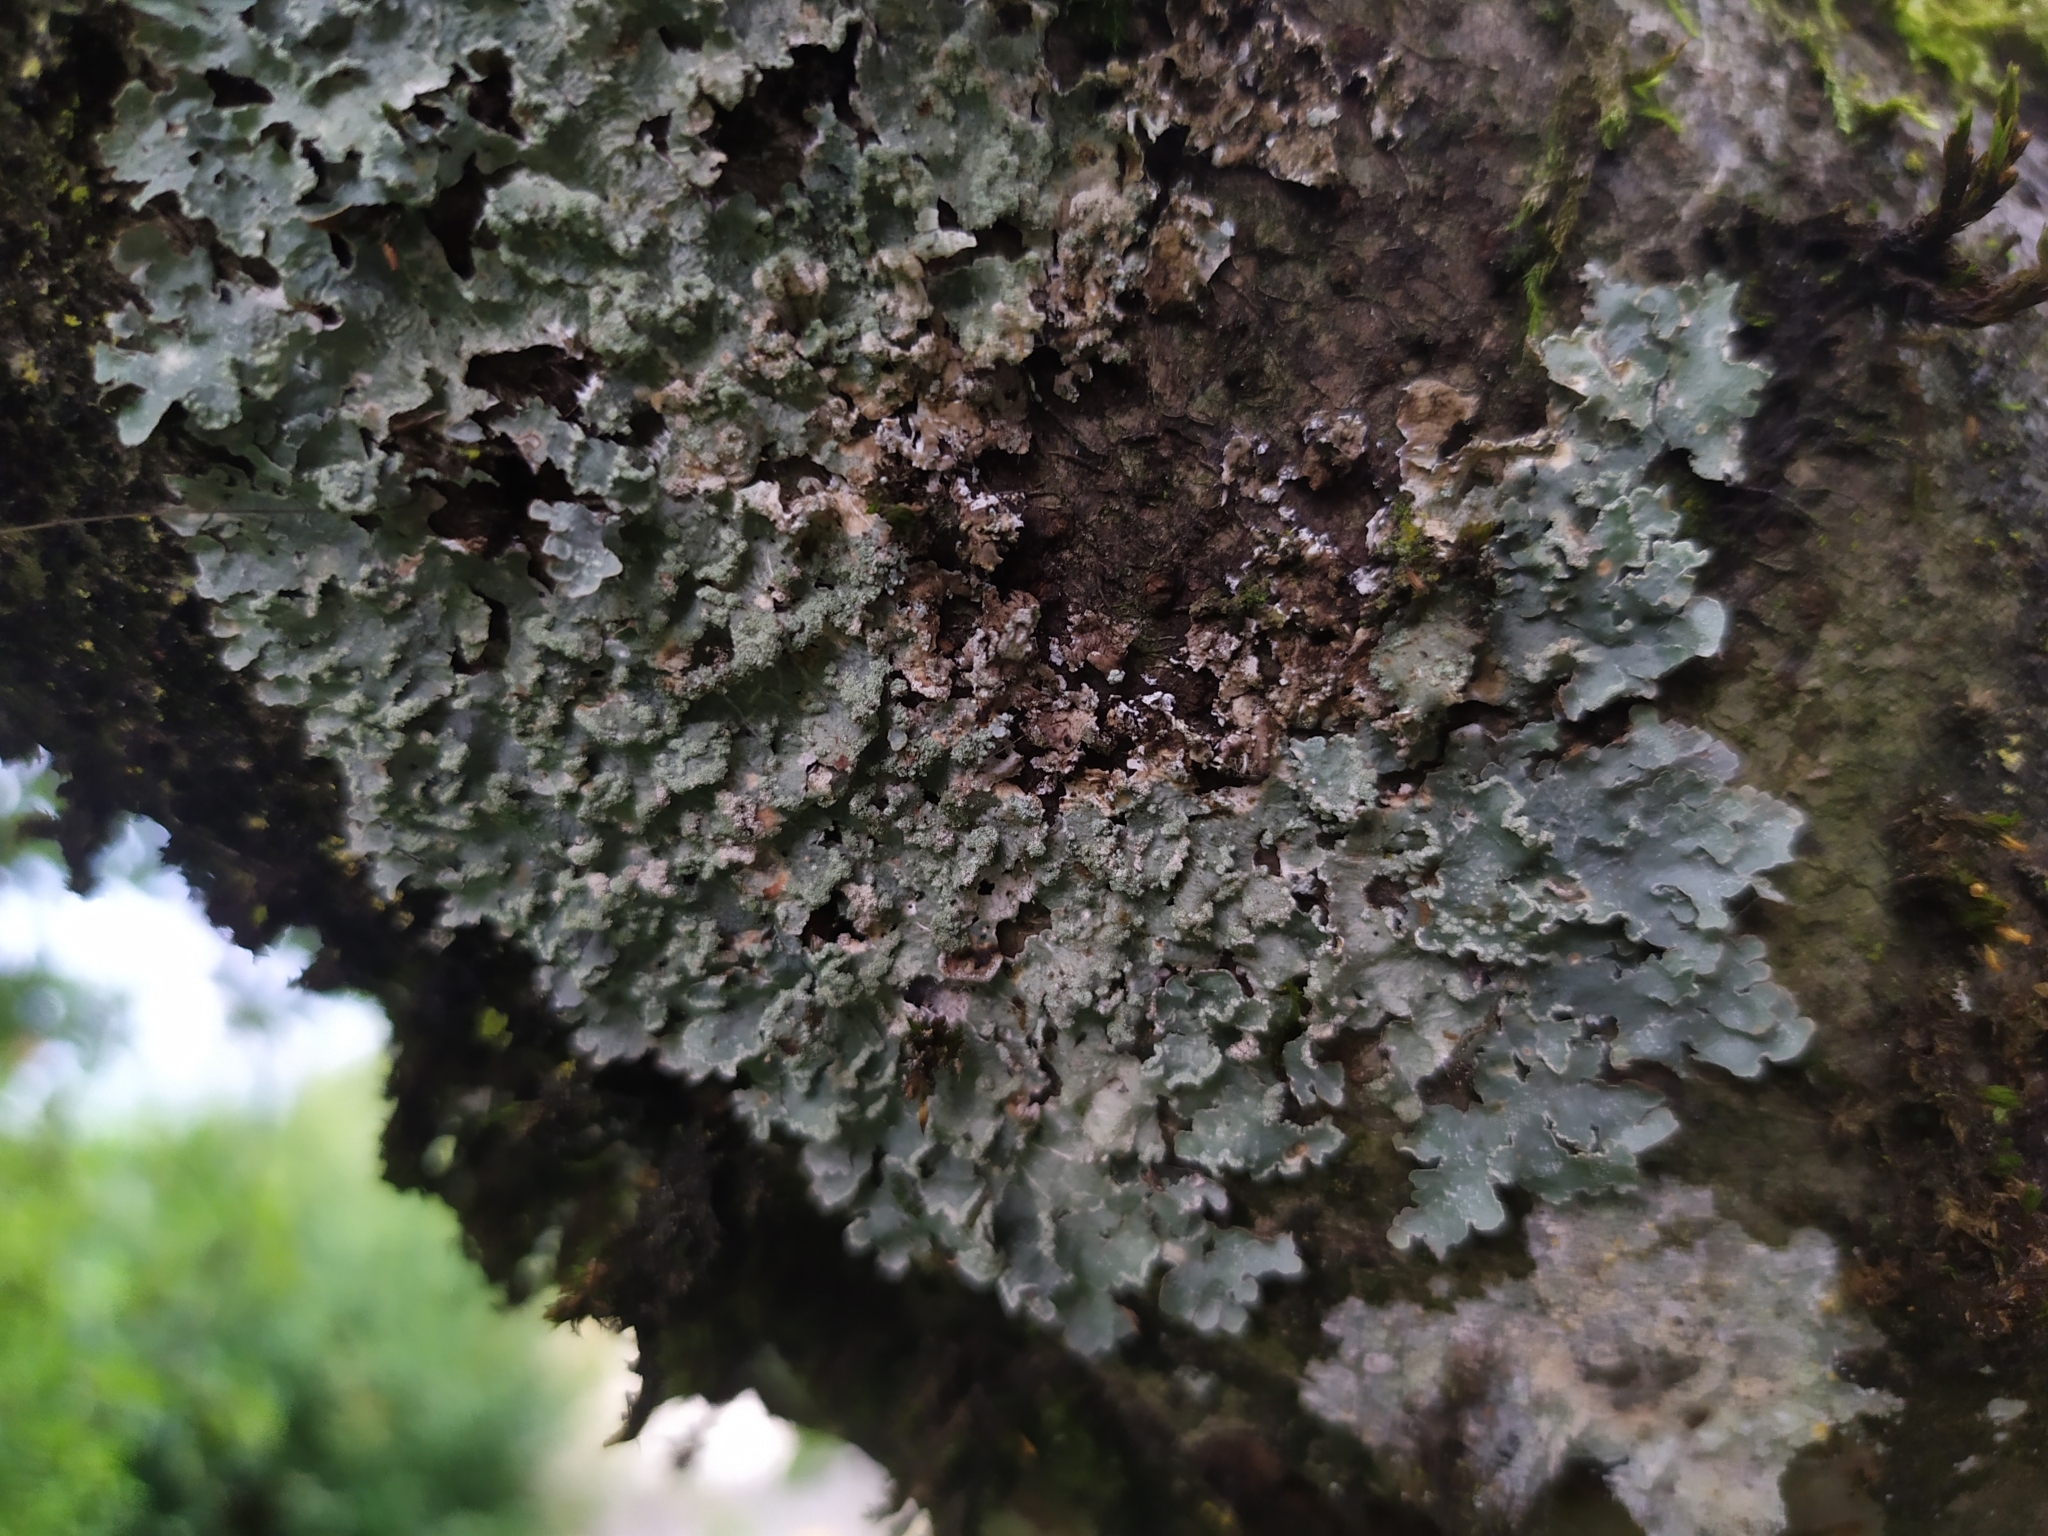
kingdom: Fungi
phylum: Ascomycota
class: Lecanoromycetes
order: Lecanorales
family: Parmeliaceae
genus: Punctelia
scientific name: Punctelia jeckeri
